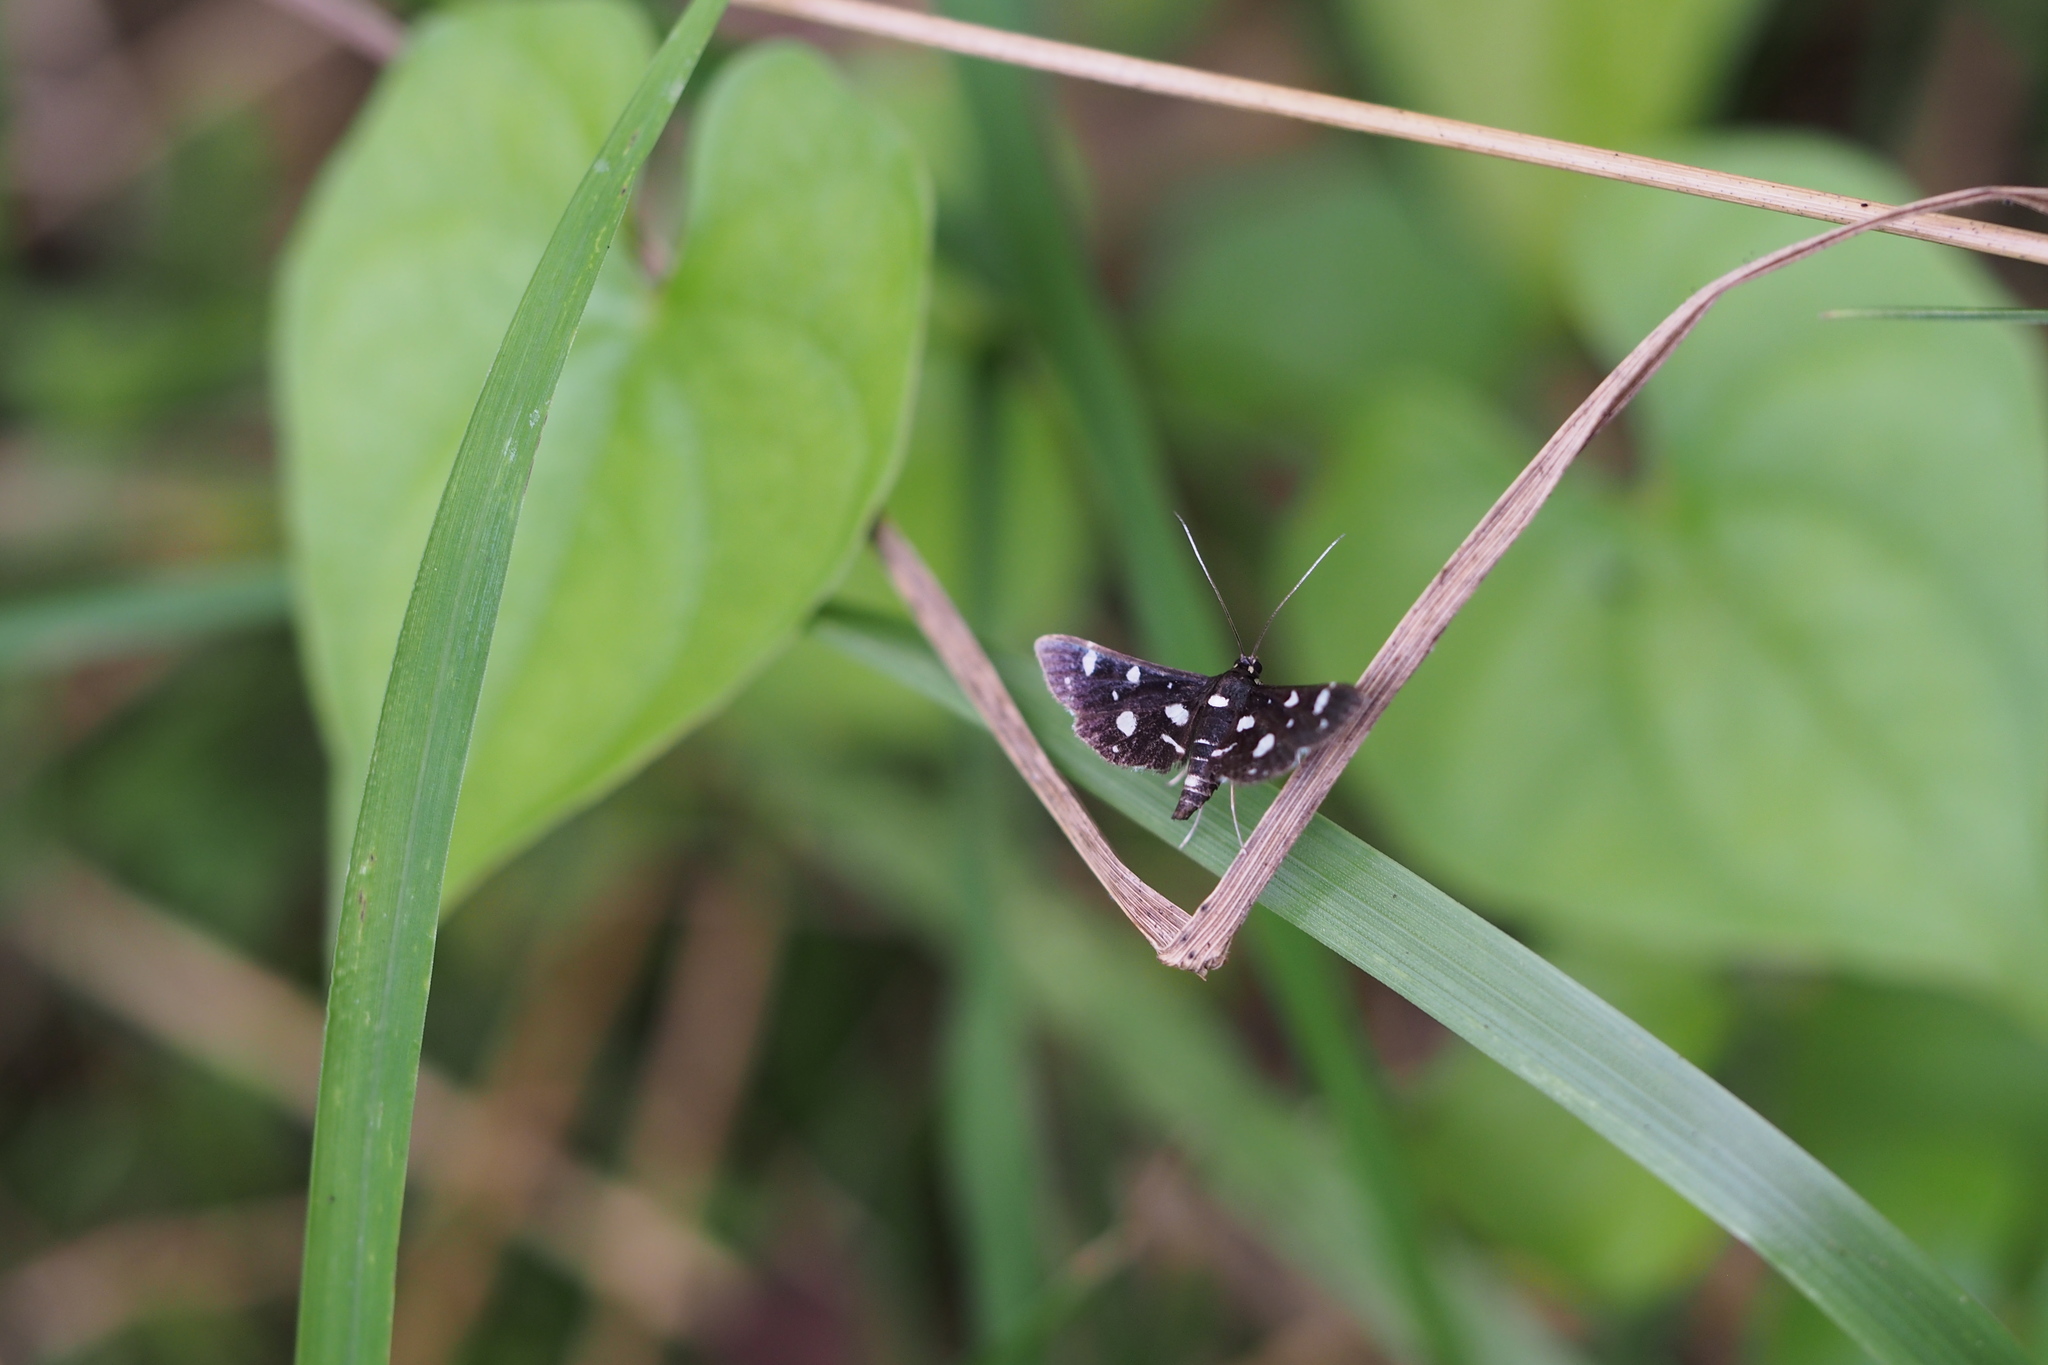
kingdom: Animalia
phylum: Arthropoda
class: Insecta
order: Lepidoptera
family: Crambidae
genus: Bocchoris
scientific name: Bocchoris inspersalis
